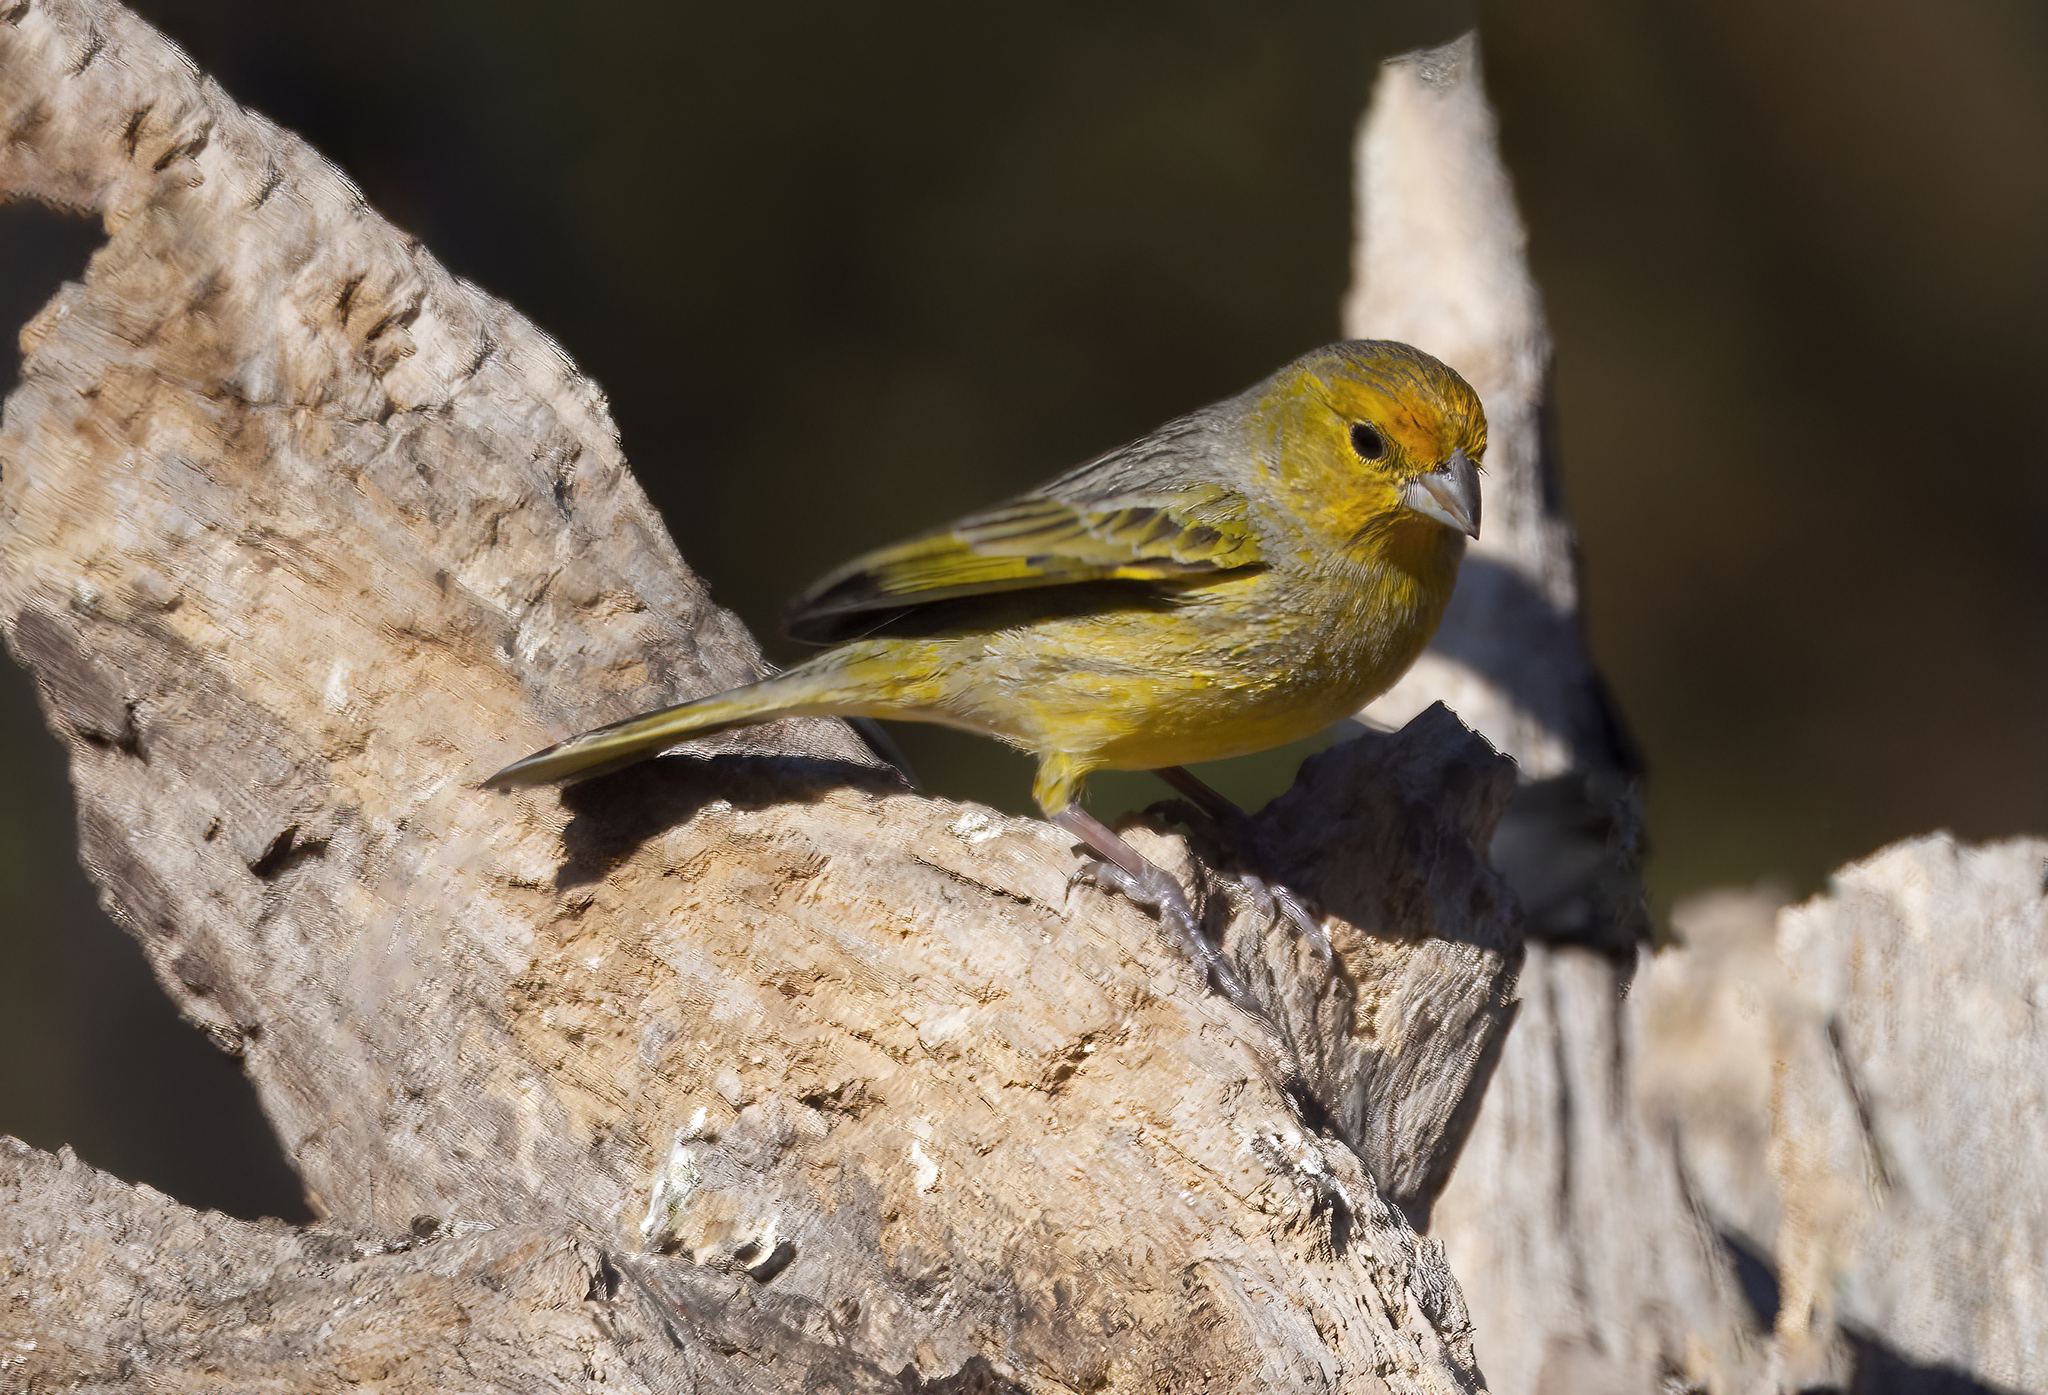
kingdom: Animalia
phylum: Chordata
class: Aves
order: Passeriformes
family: Thraupidae
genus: Sicalis
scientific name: Sicalis flaveola
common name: Saffron finch
